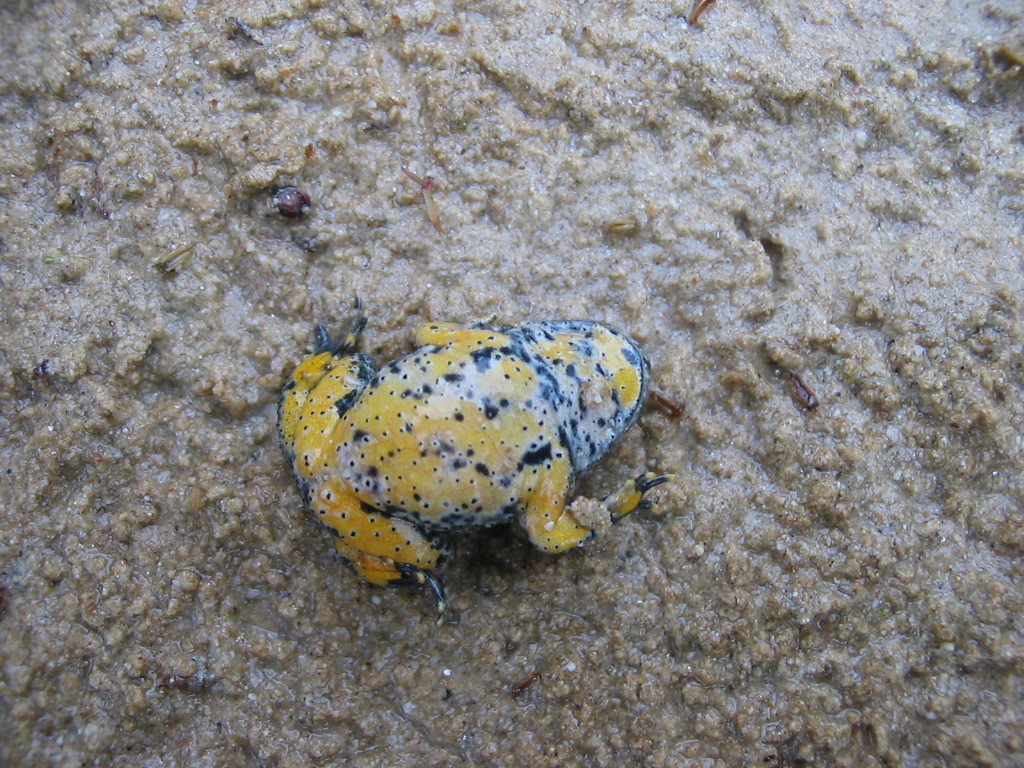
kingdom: Animalia
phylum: Chordata
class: Amphibia
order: Anura
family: Bombinatoridae
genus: Bombina
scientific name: Bombina variegata
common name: Yellow-bellied toad
